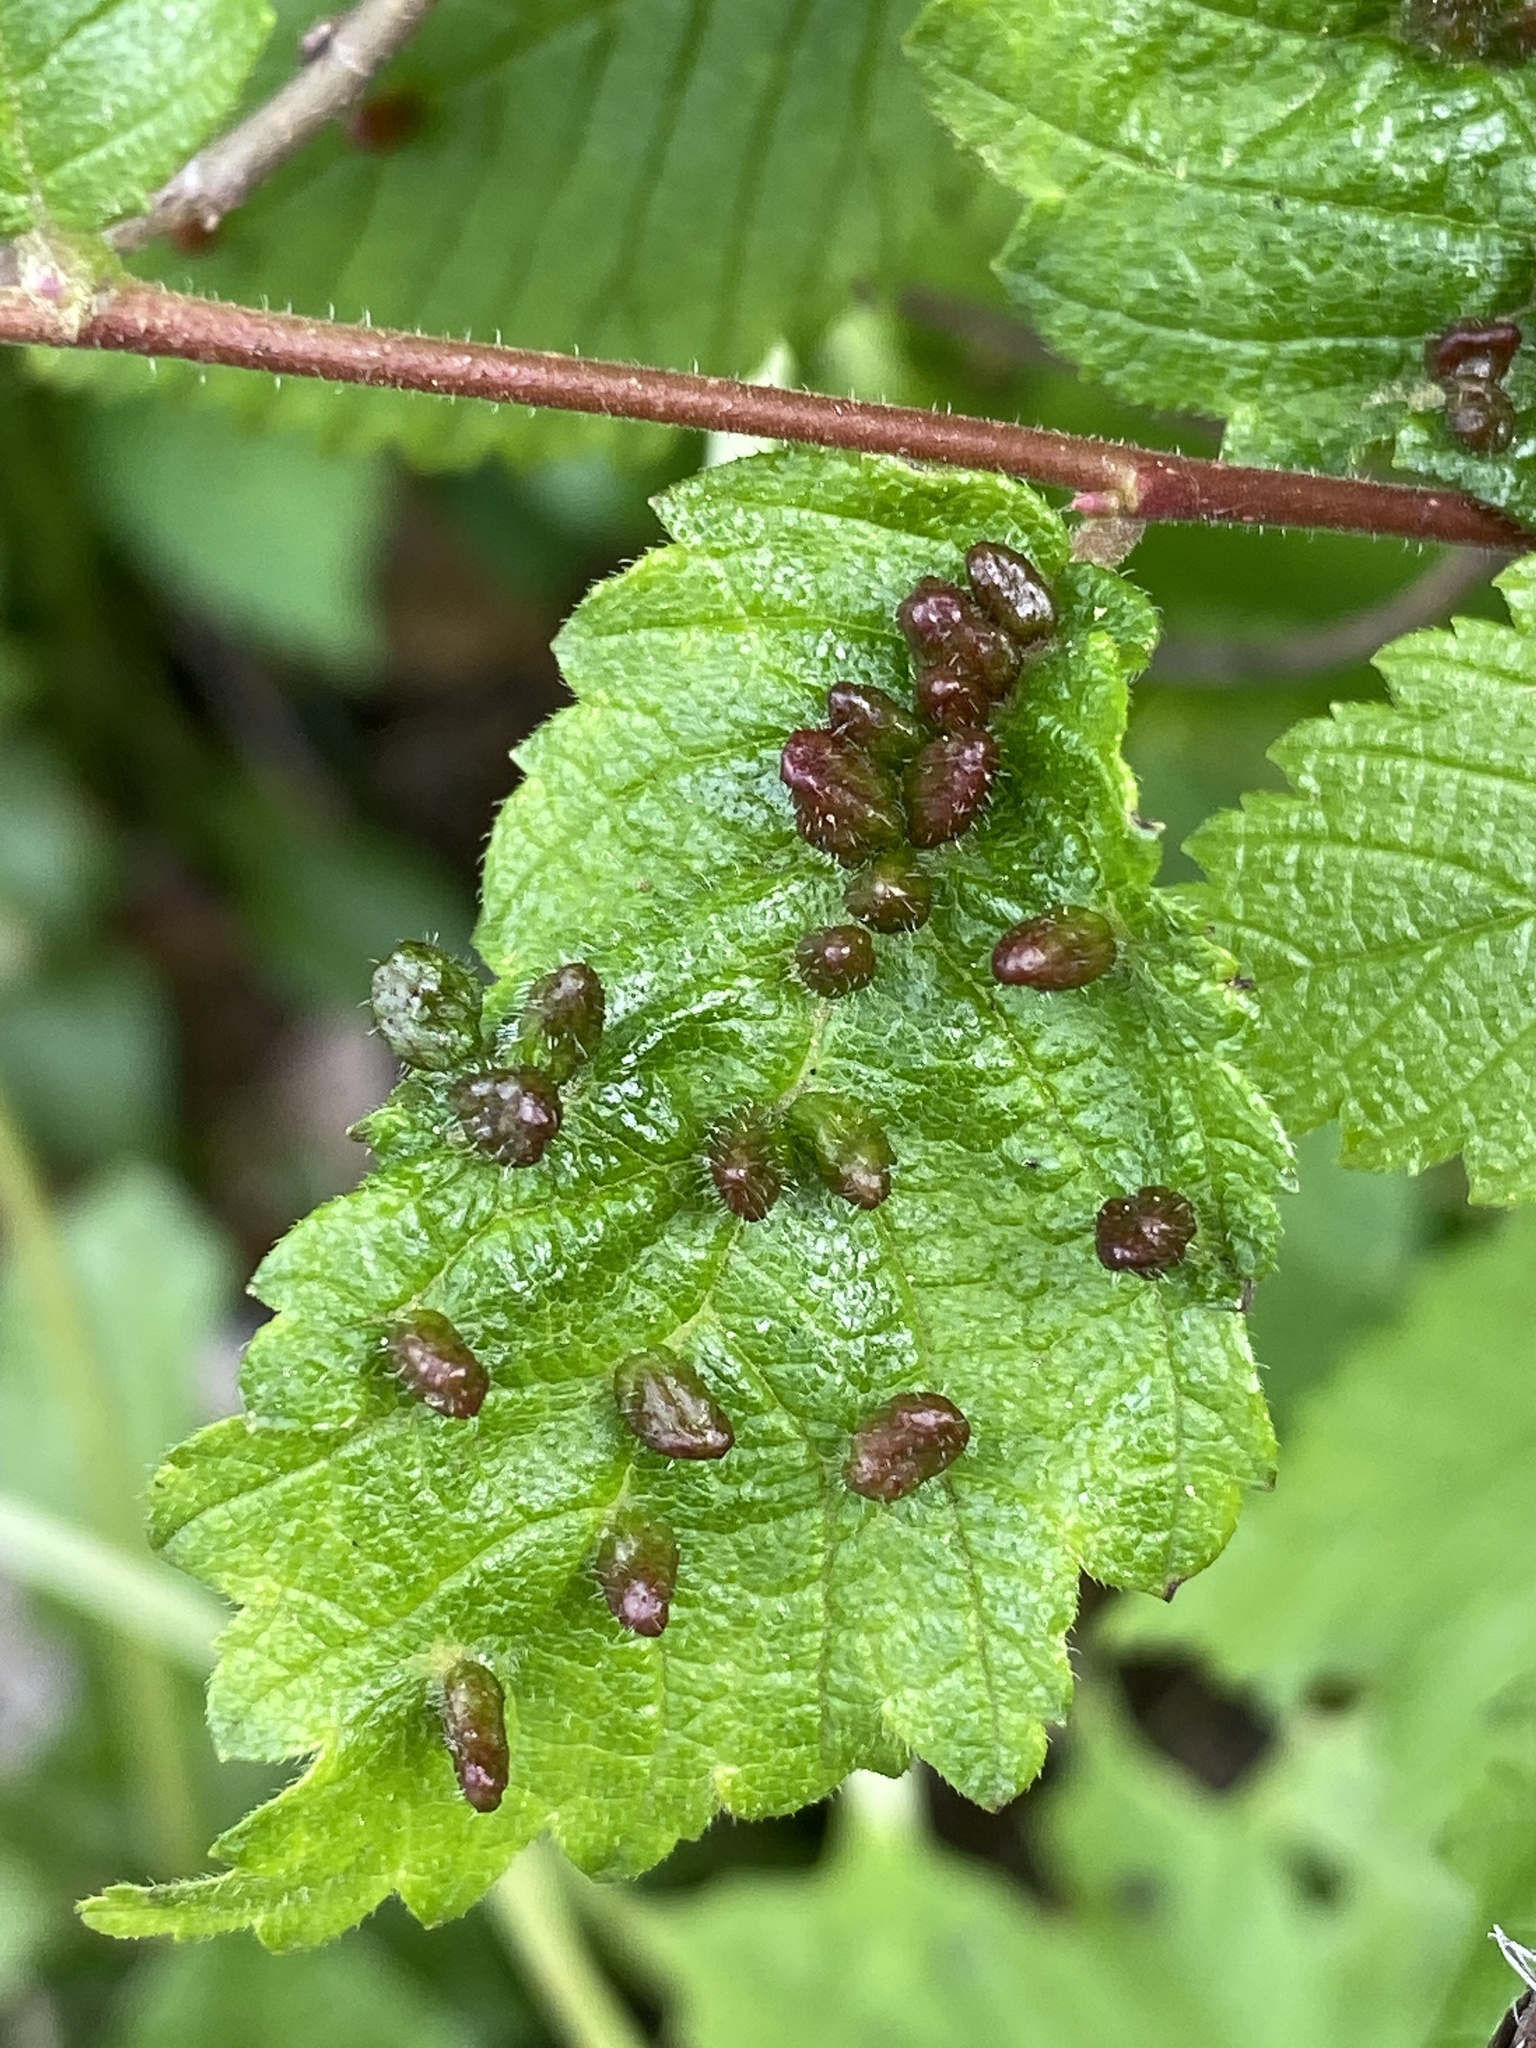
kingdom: Animalia
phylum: Arthropoda
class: Arachnida
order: Trombidiformes
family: Eriophyidae
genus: Aceria
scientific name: Aceria
